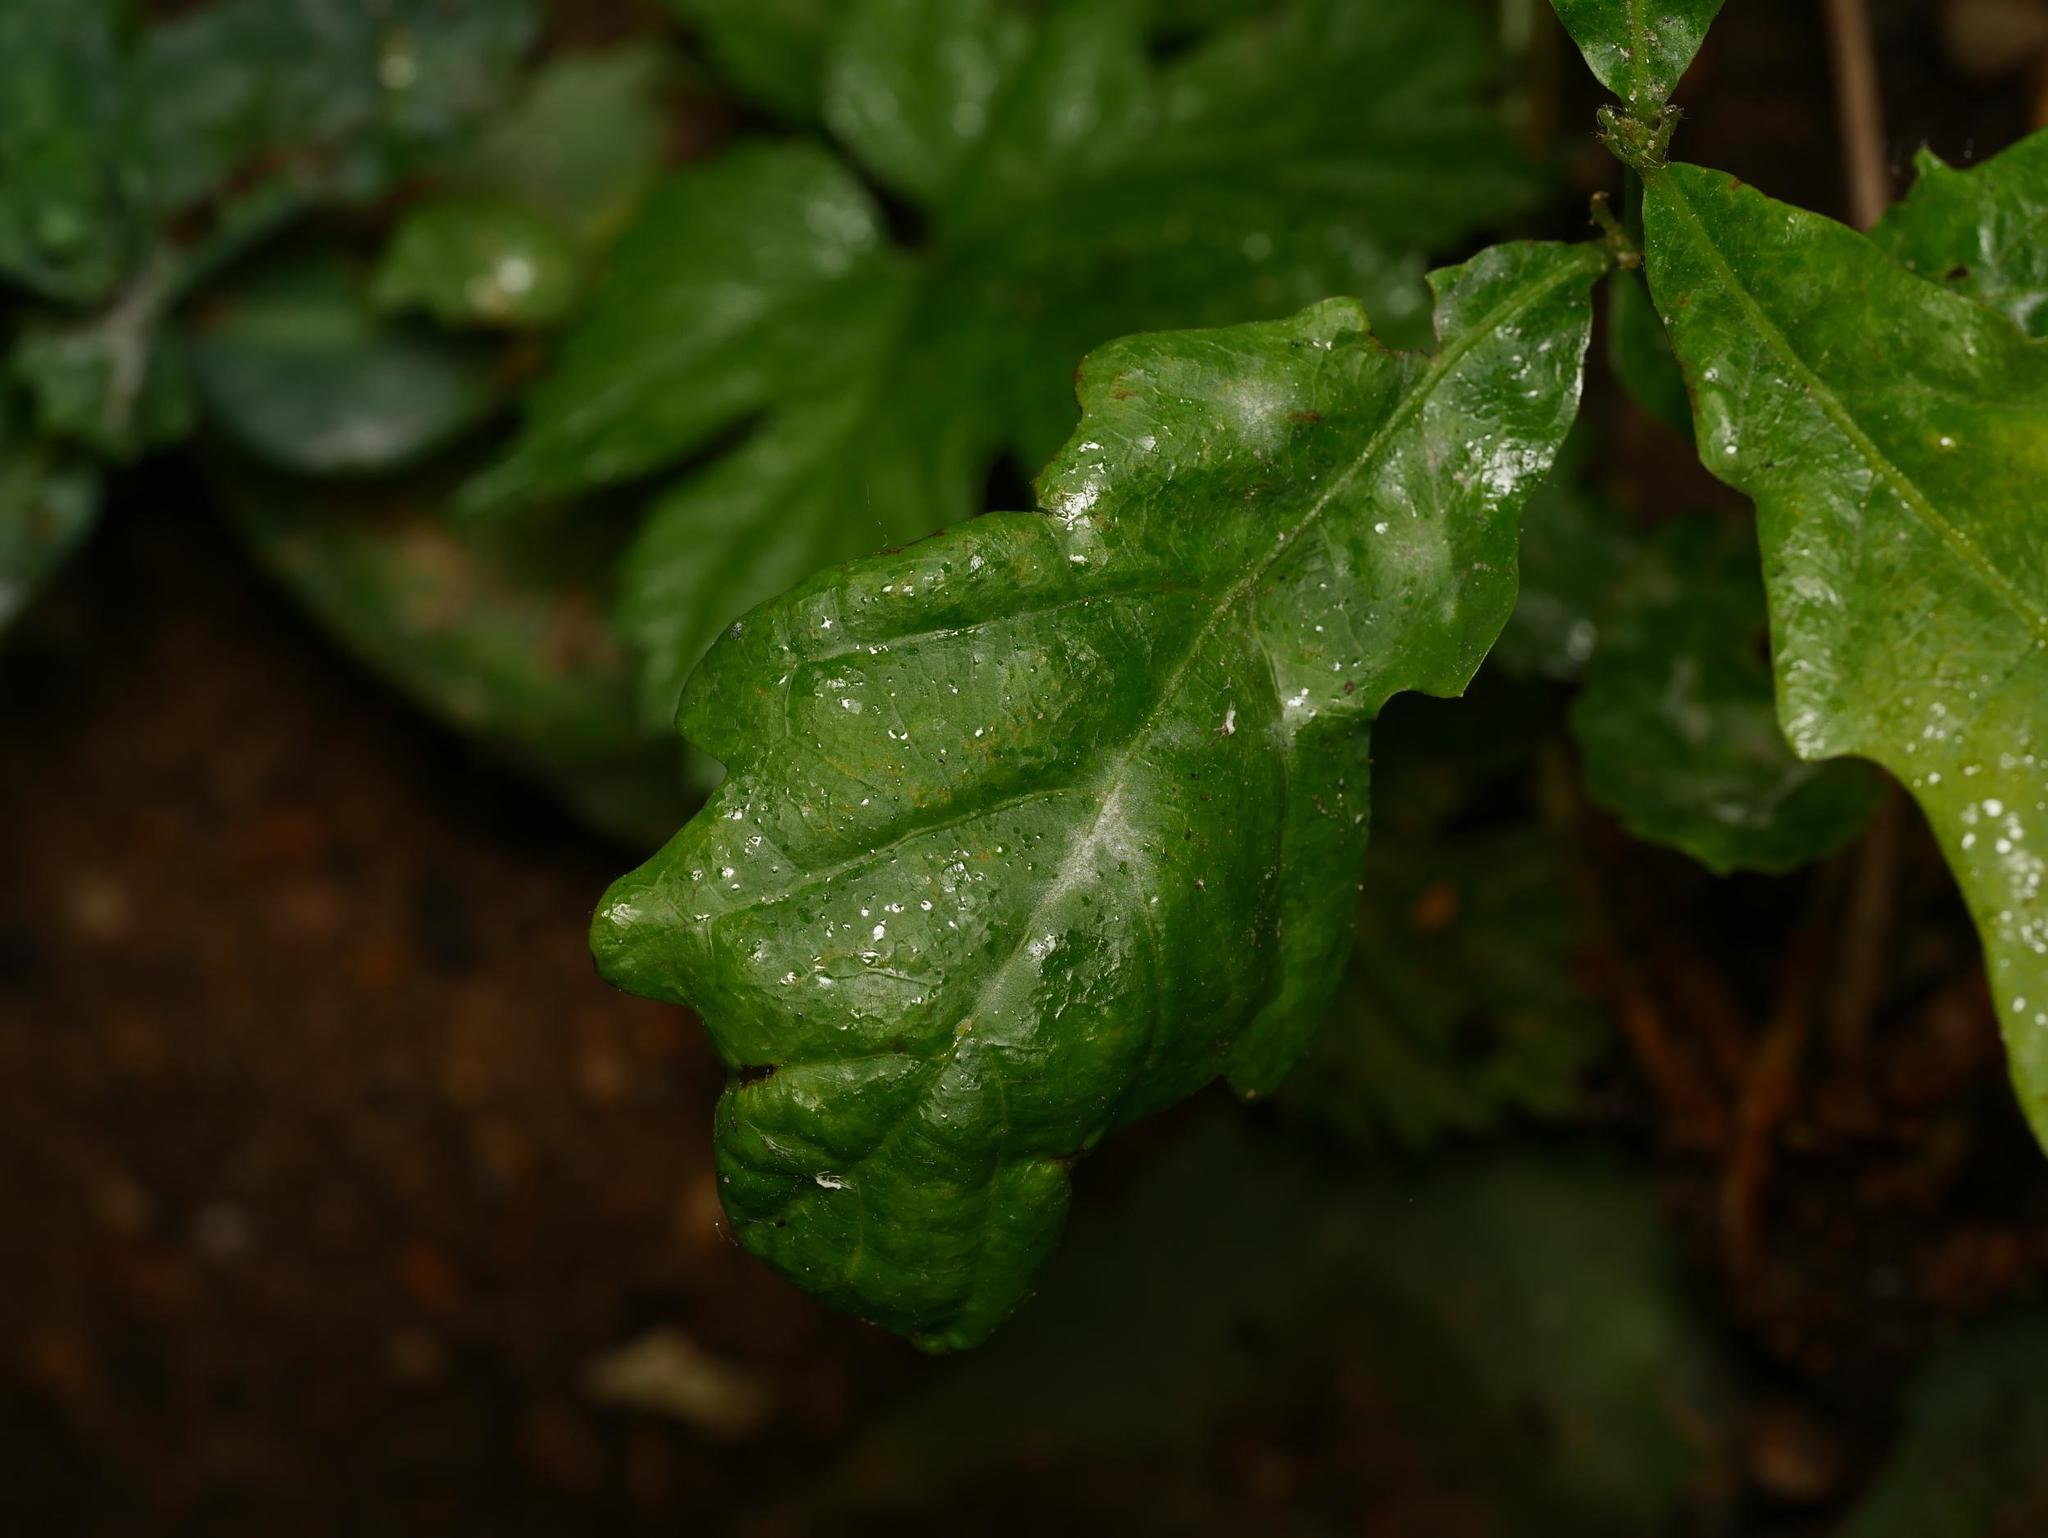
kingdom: Fungi
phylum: Ascomycota
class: Leotiomycetes
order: Helotiales
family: Erysiphaceae
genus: Erysiphe
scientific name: Erysiphe
